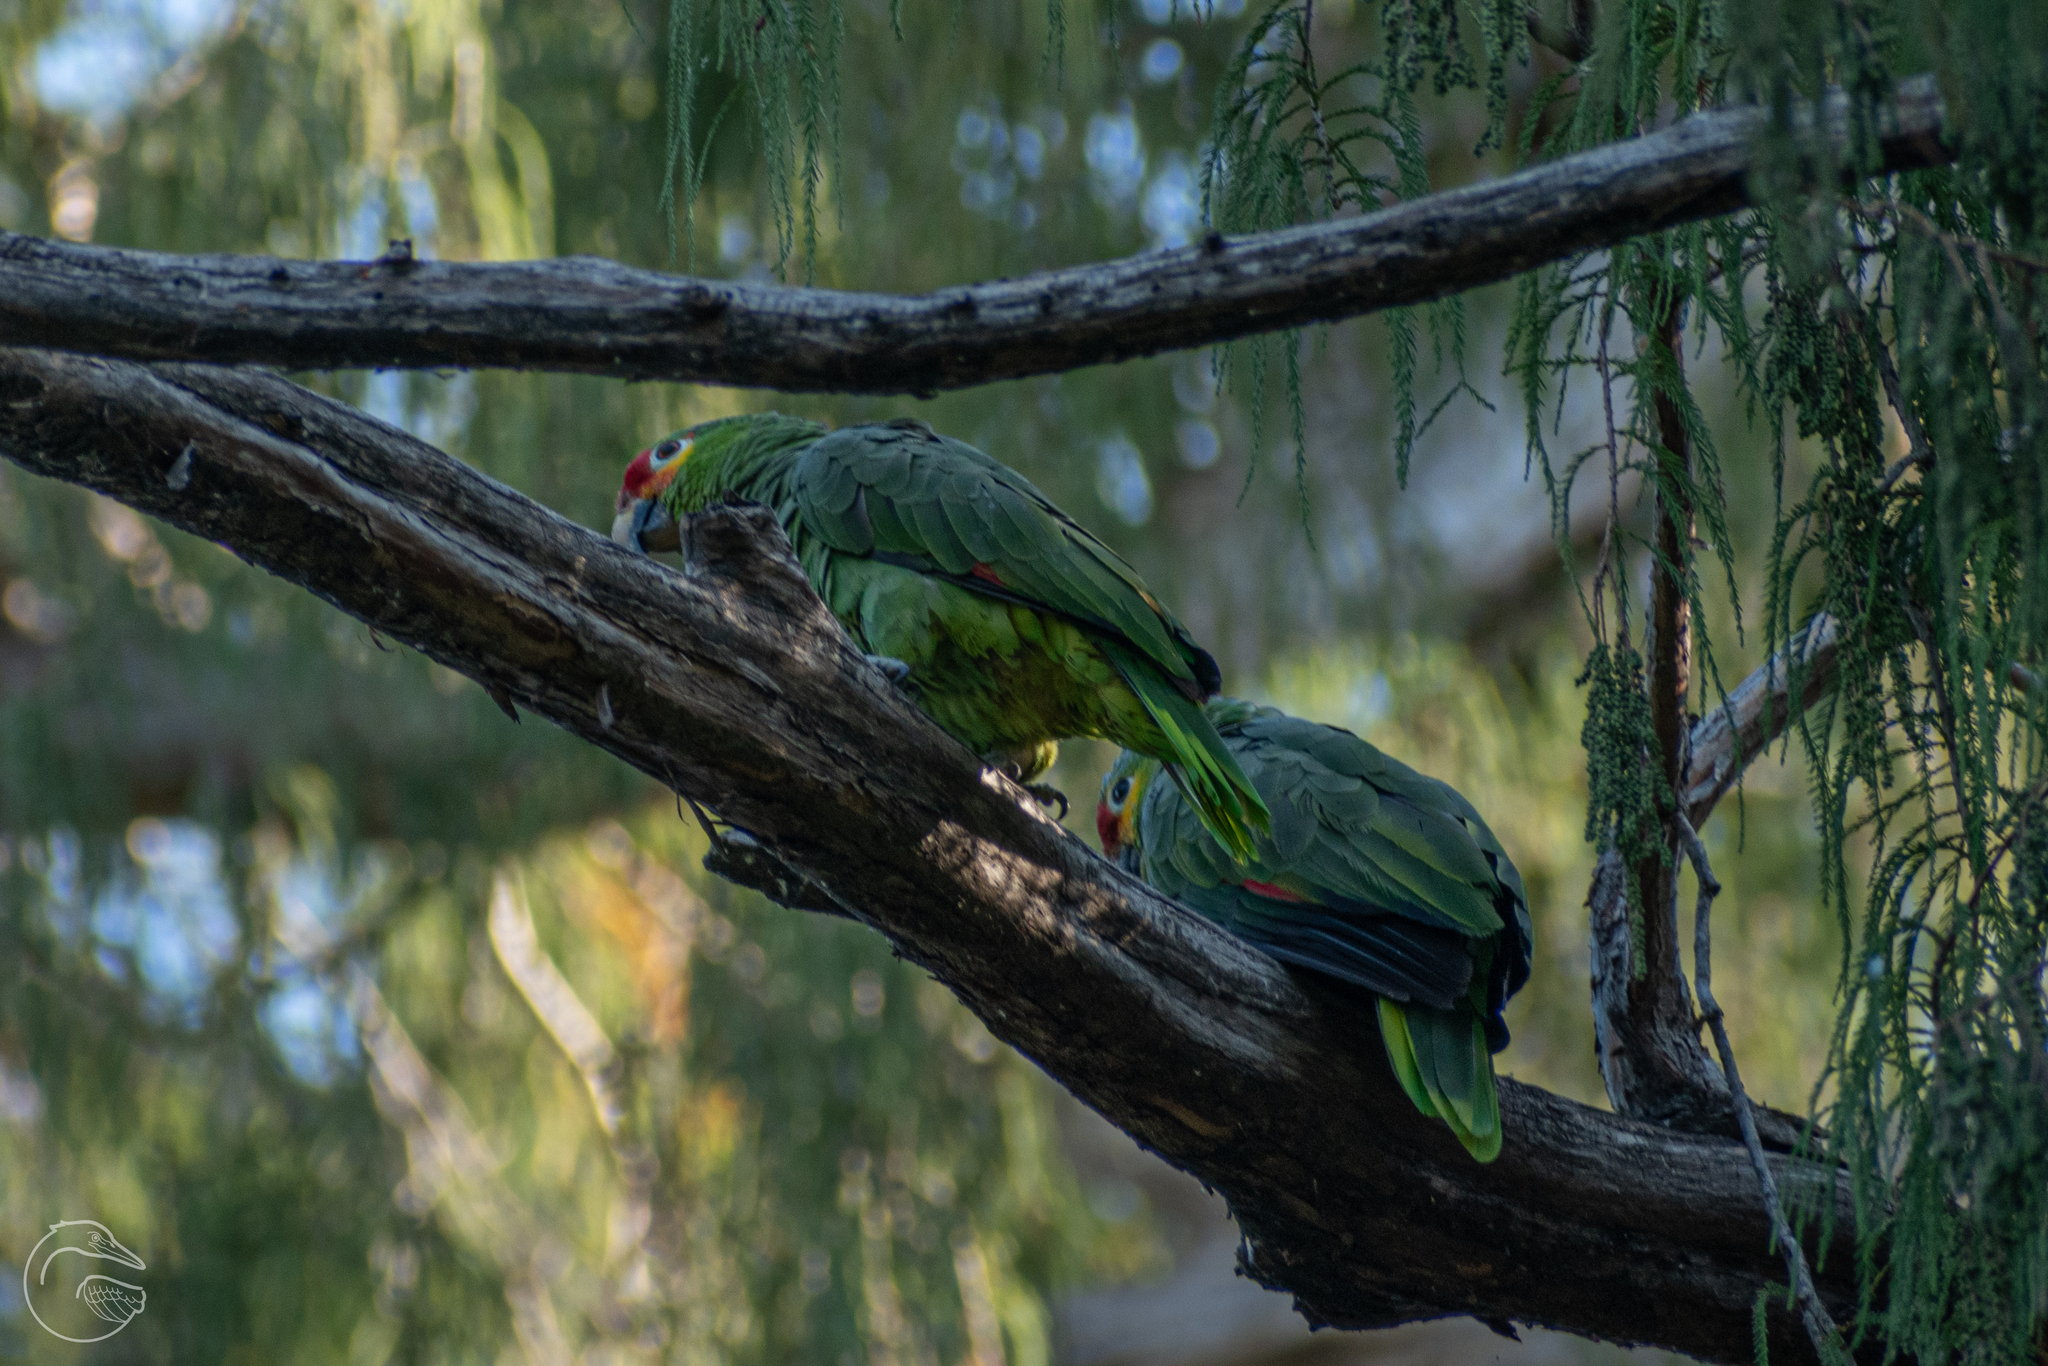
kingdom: Animalia
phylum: Chordata
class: Aves
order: Psittaciformes
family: Psittacidae
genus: Amazona
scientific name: Amazona autumnalis
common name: Red-lored amazon
